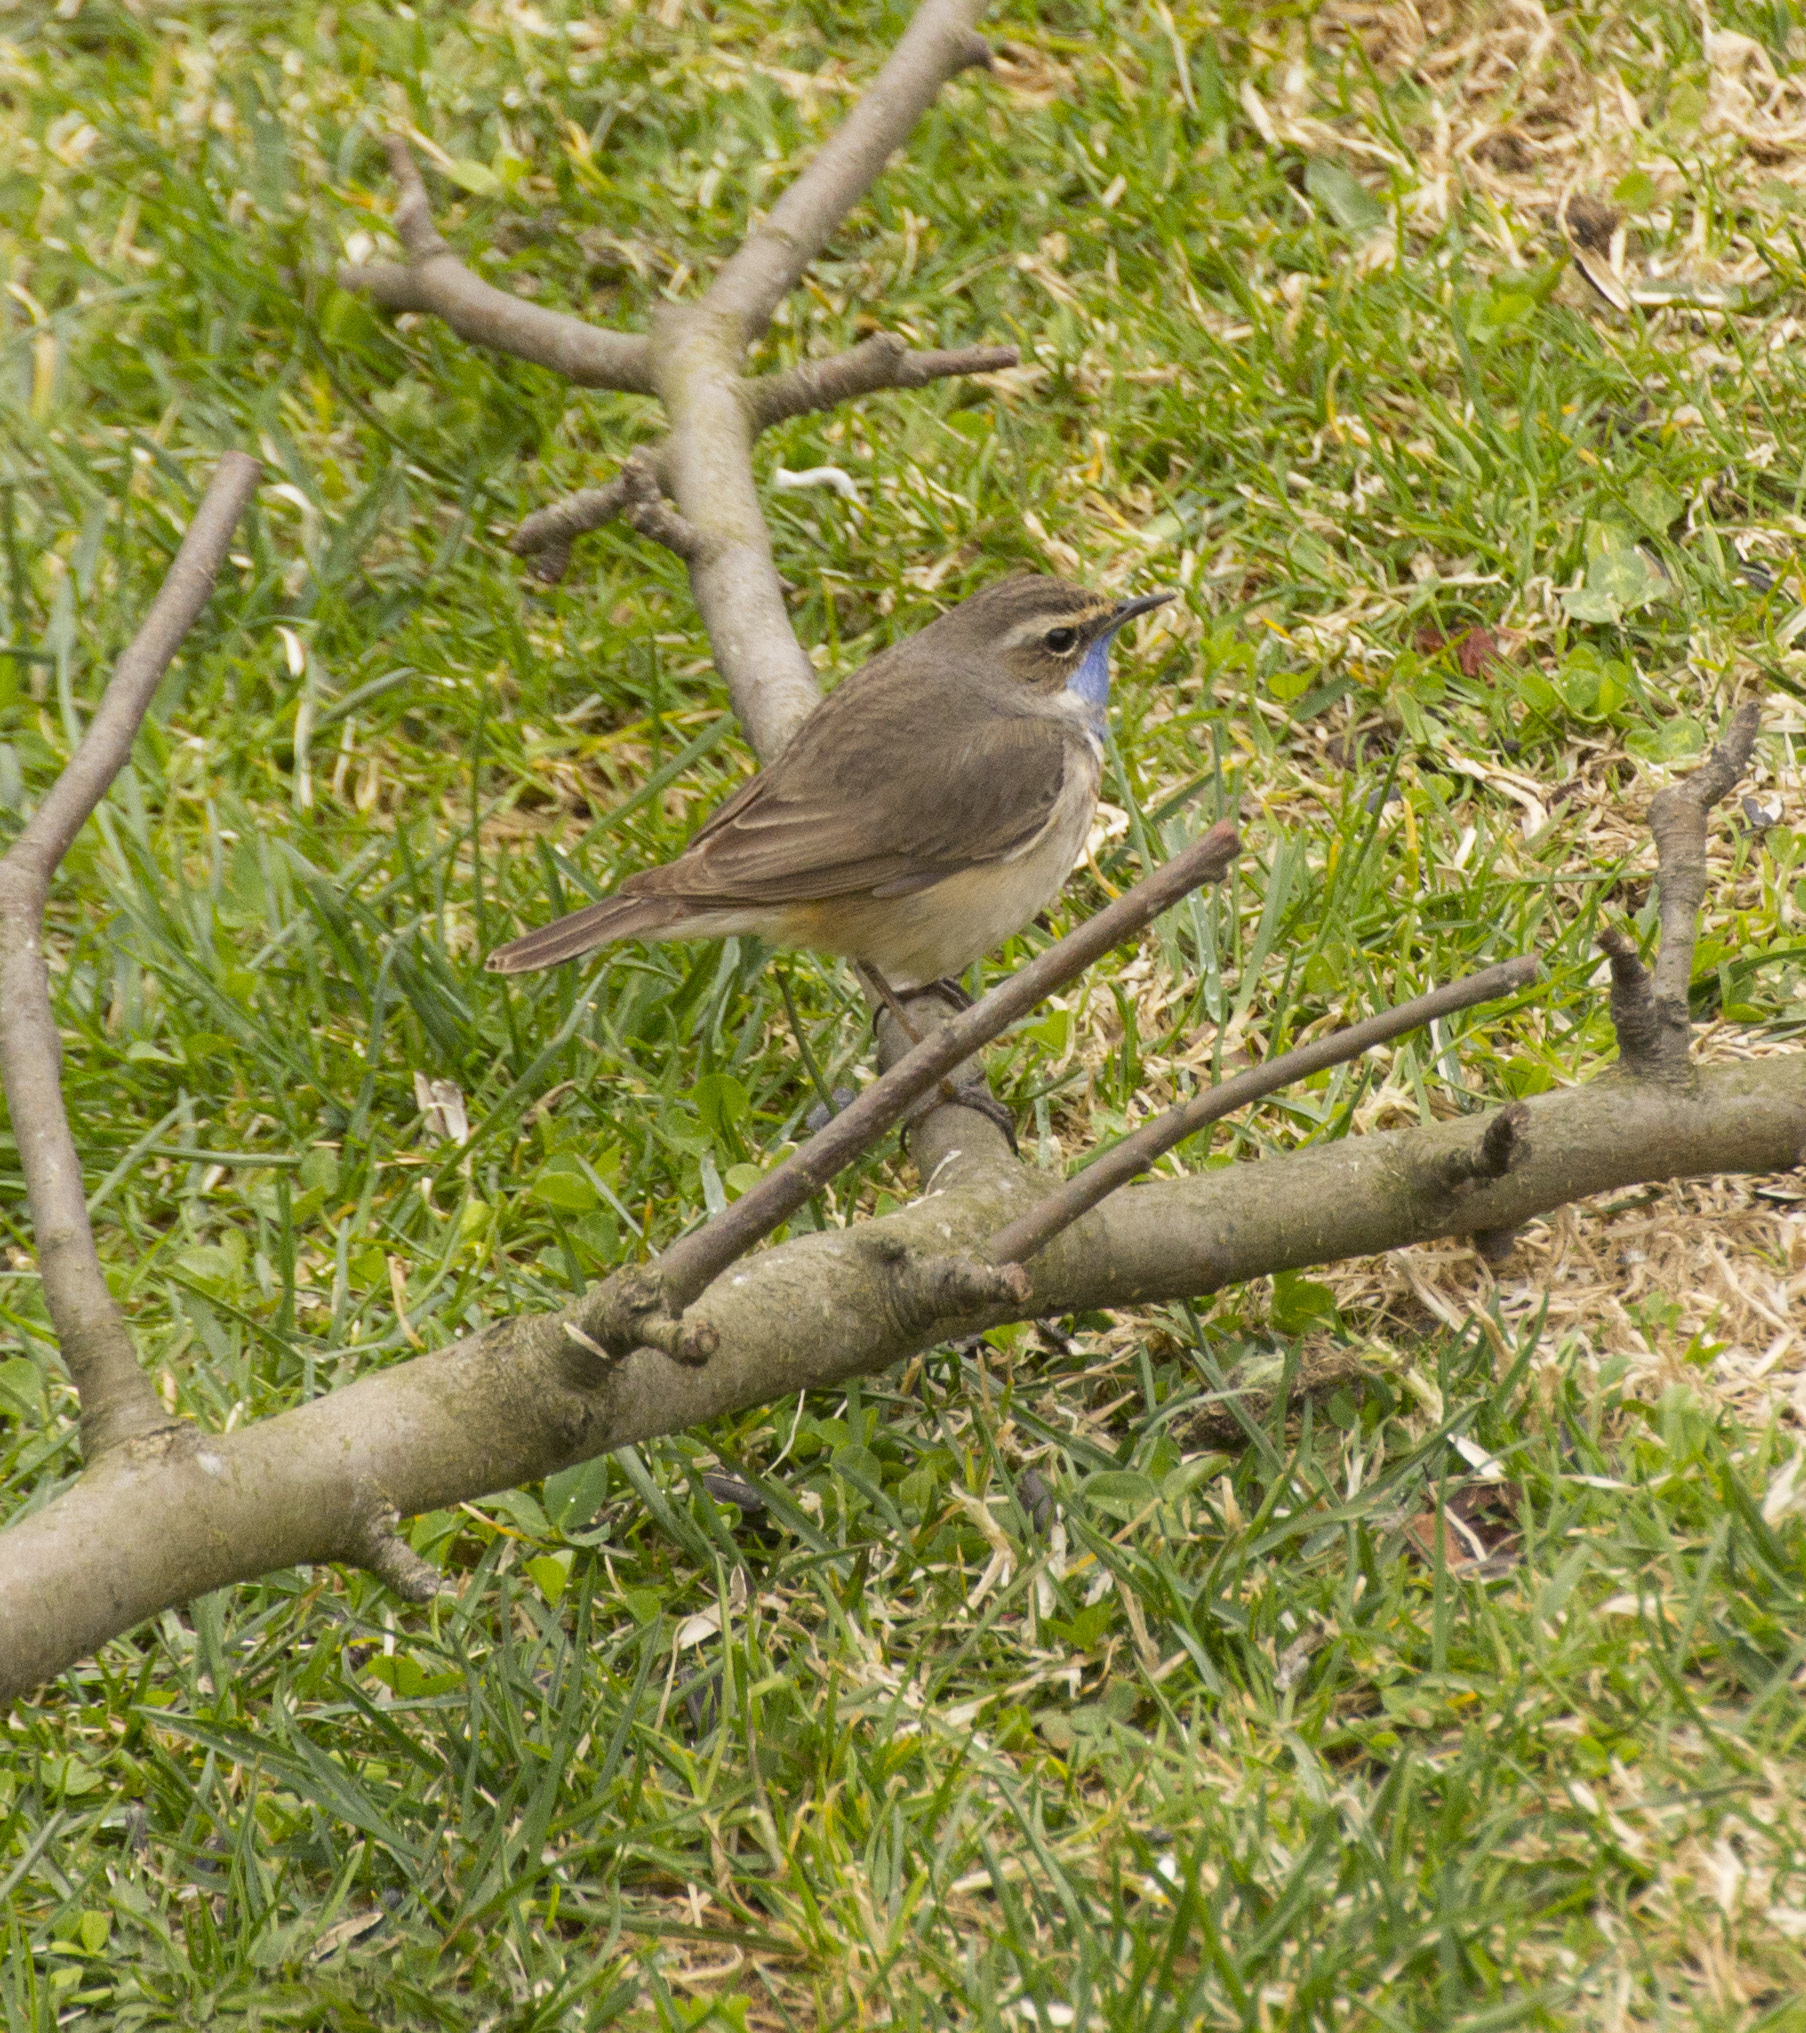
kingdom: Animalia
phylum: Chordata
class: Aves
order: Passeriformes
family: Muscicapidae
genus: Luscinia
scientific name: Luscinia svecica
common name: Bluethroat
